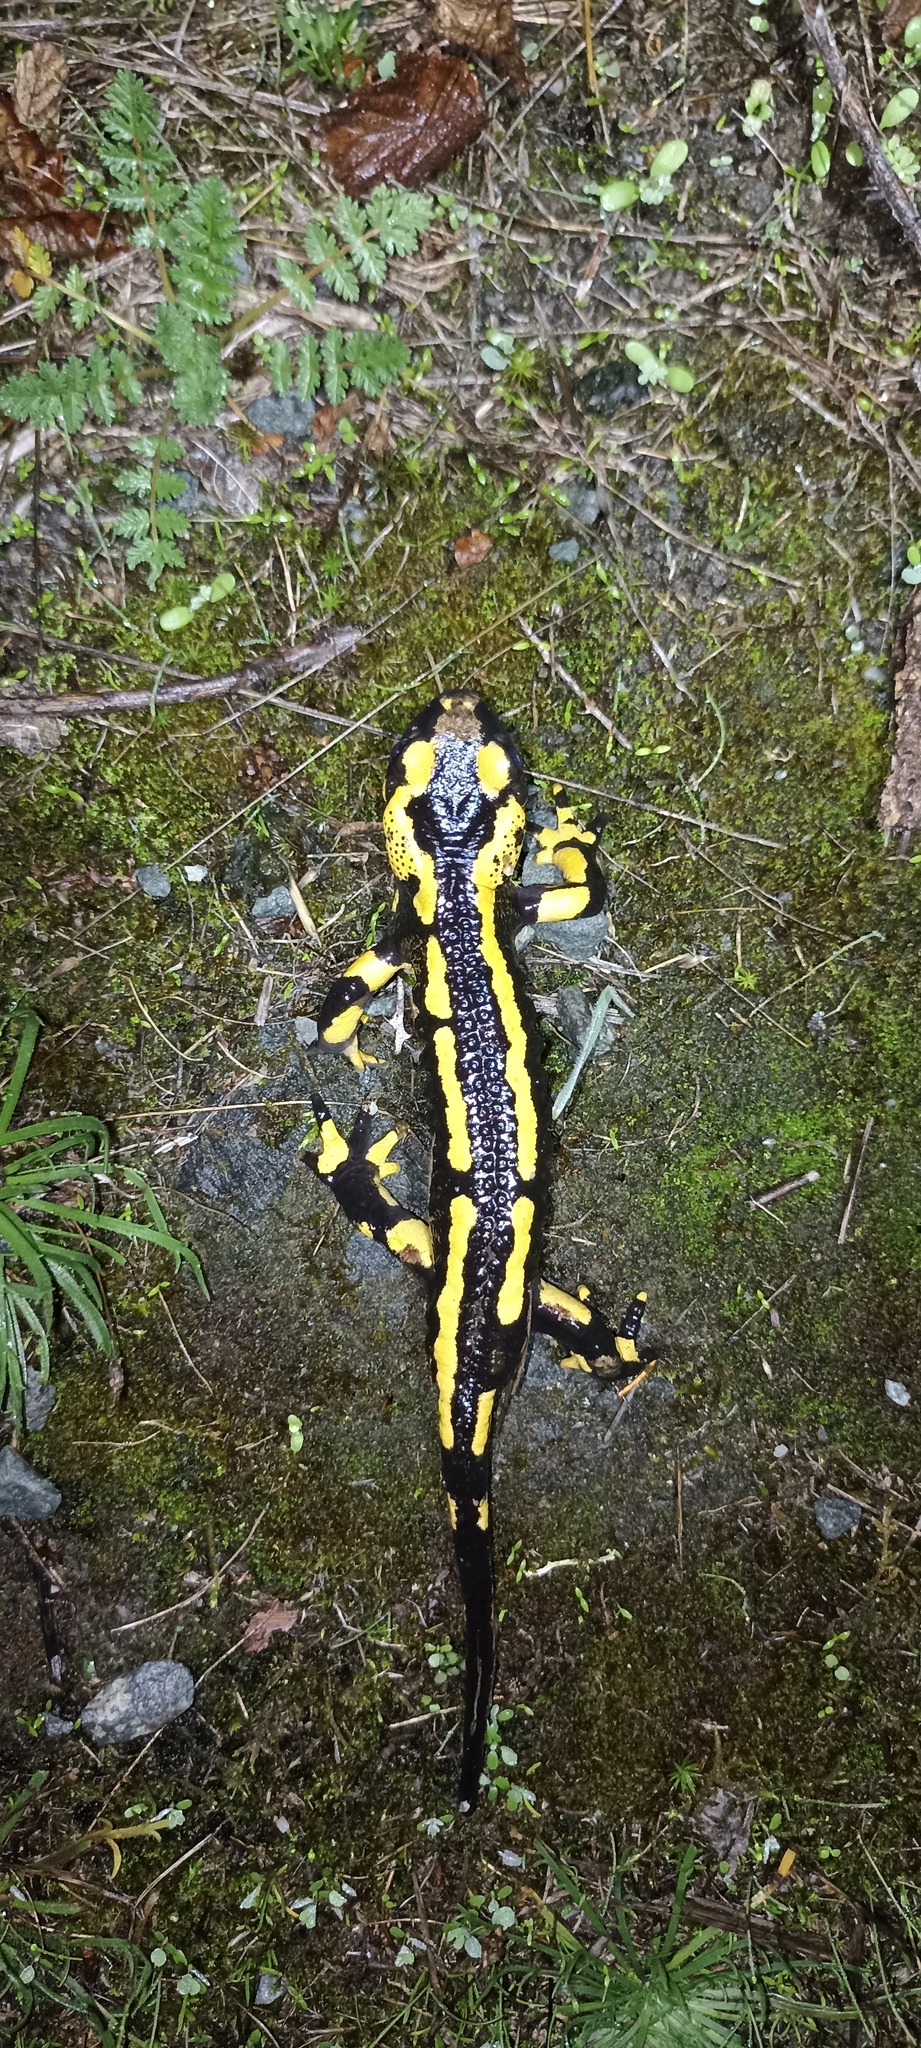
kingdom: Animalia
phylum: Chordata
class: Amphibia
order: Caudata
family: Salamandridae
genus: Salamandra
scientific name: Salamandra salamandra
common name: Fire salamander
